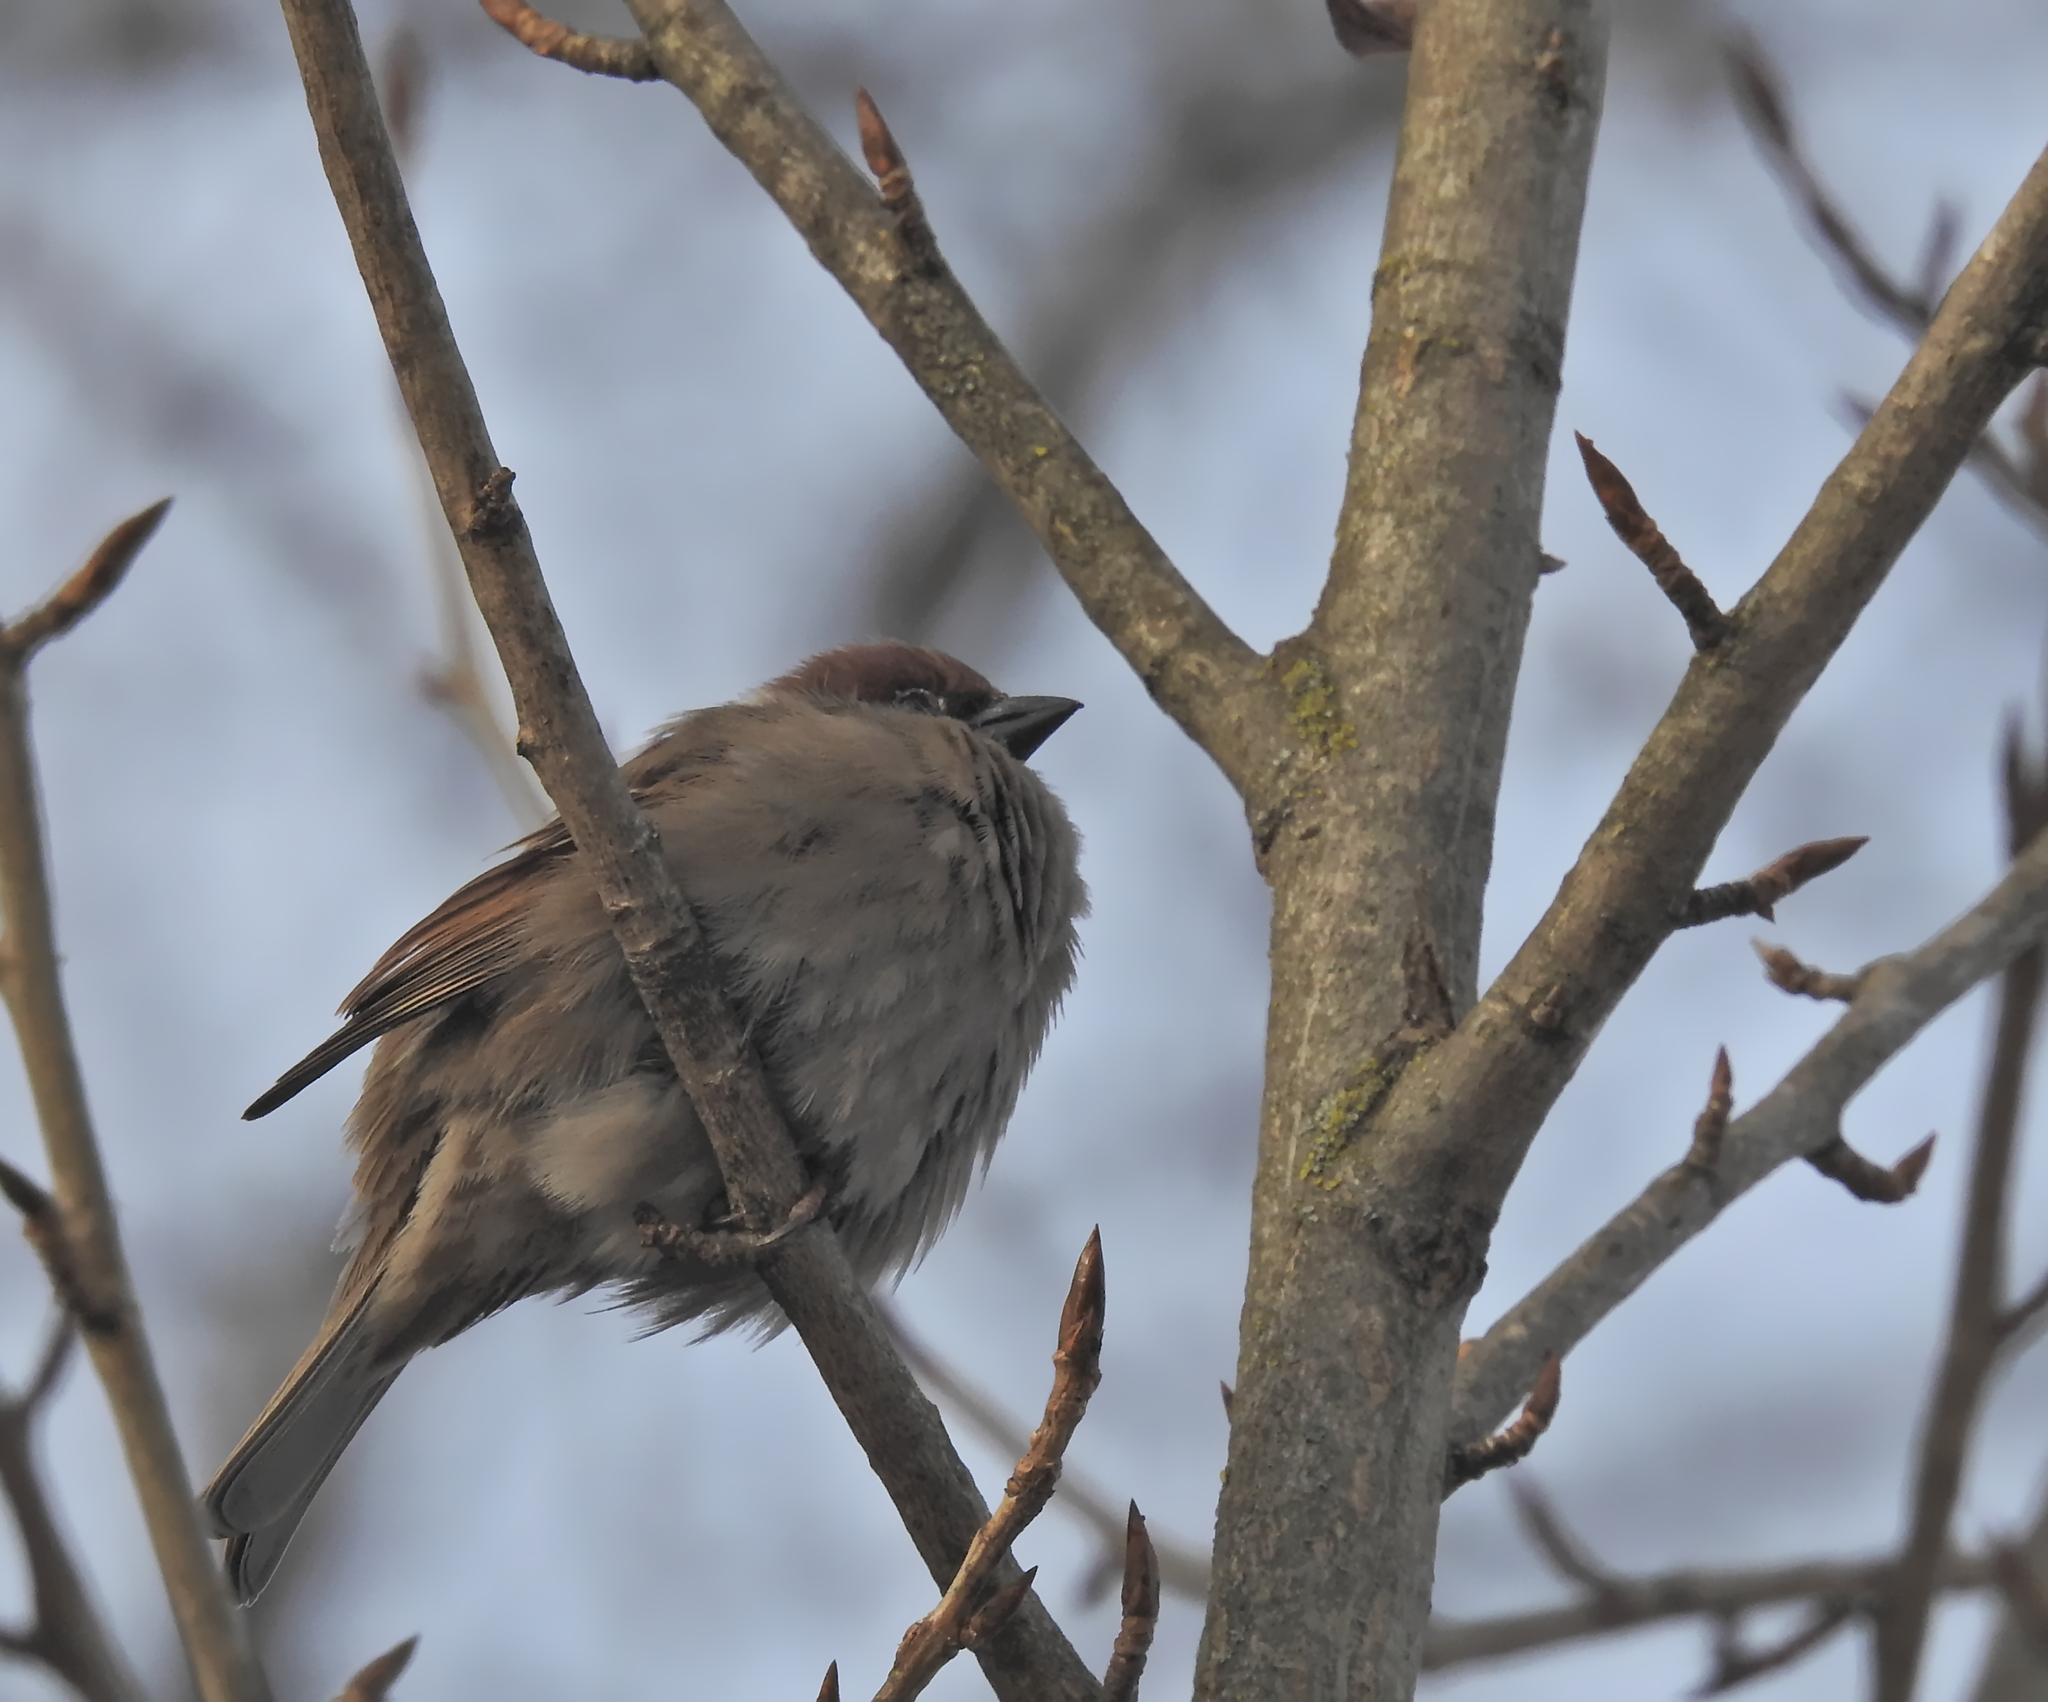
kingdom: Animalia
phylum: Chordata
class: Aves
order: Passeriformes
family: Passeridae
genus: Passer
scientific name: Passer montanus
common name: Eurasian tree sparrow
